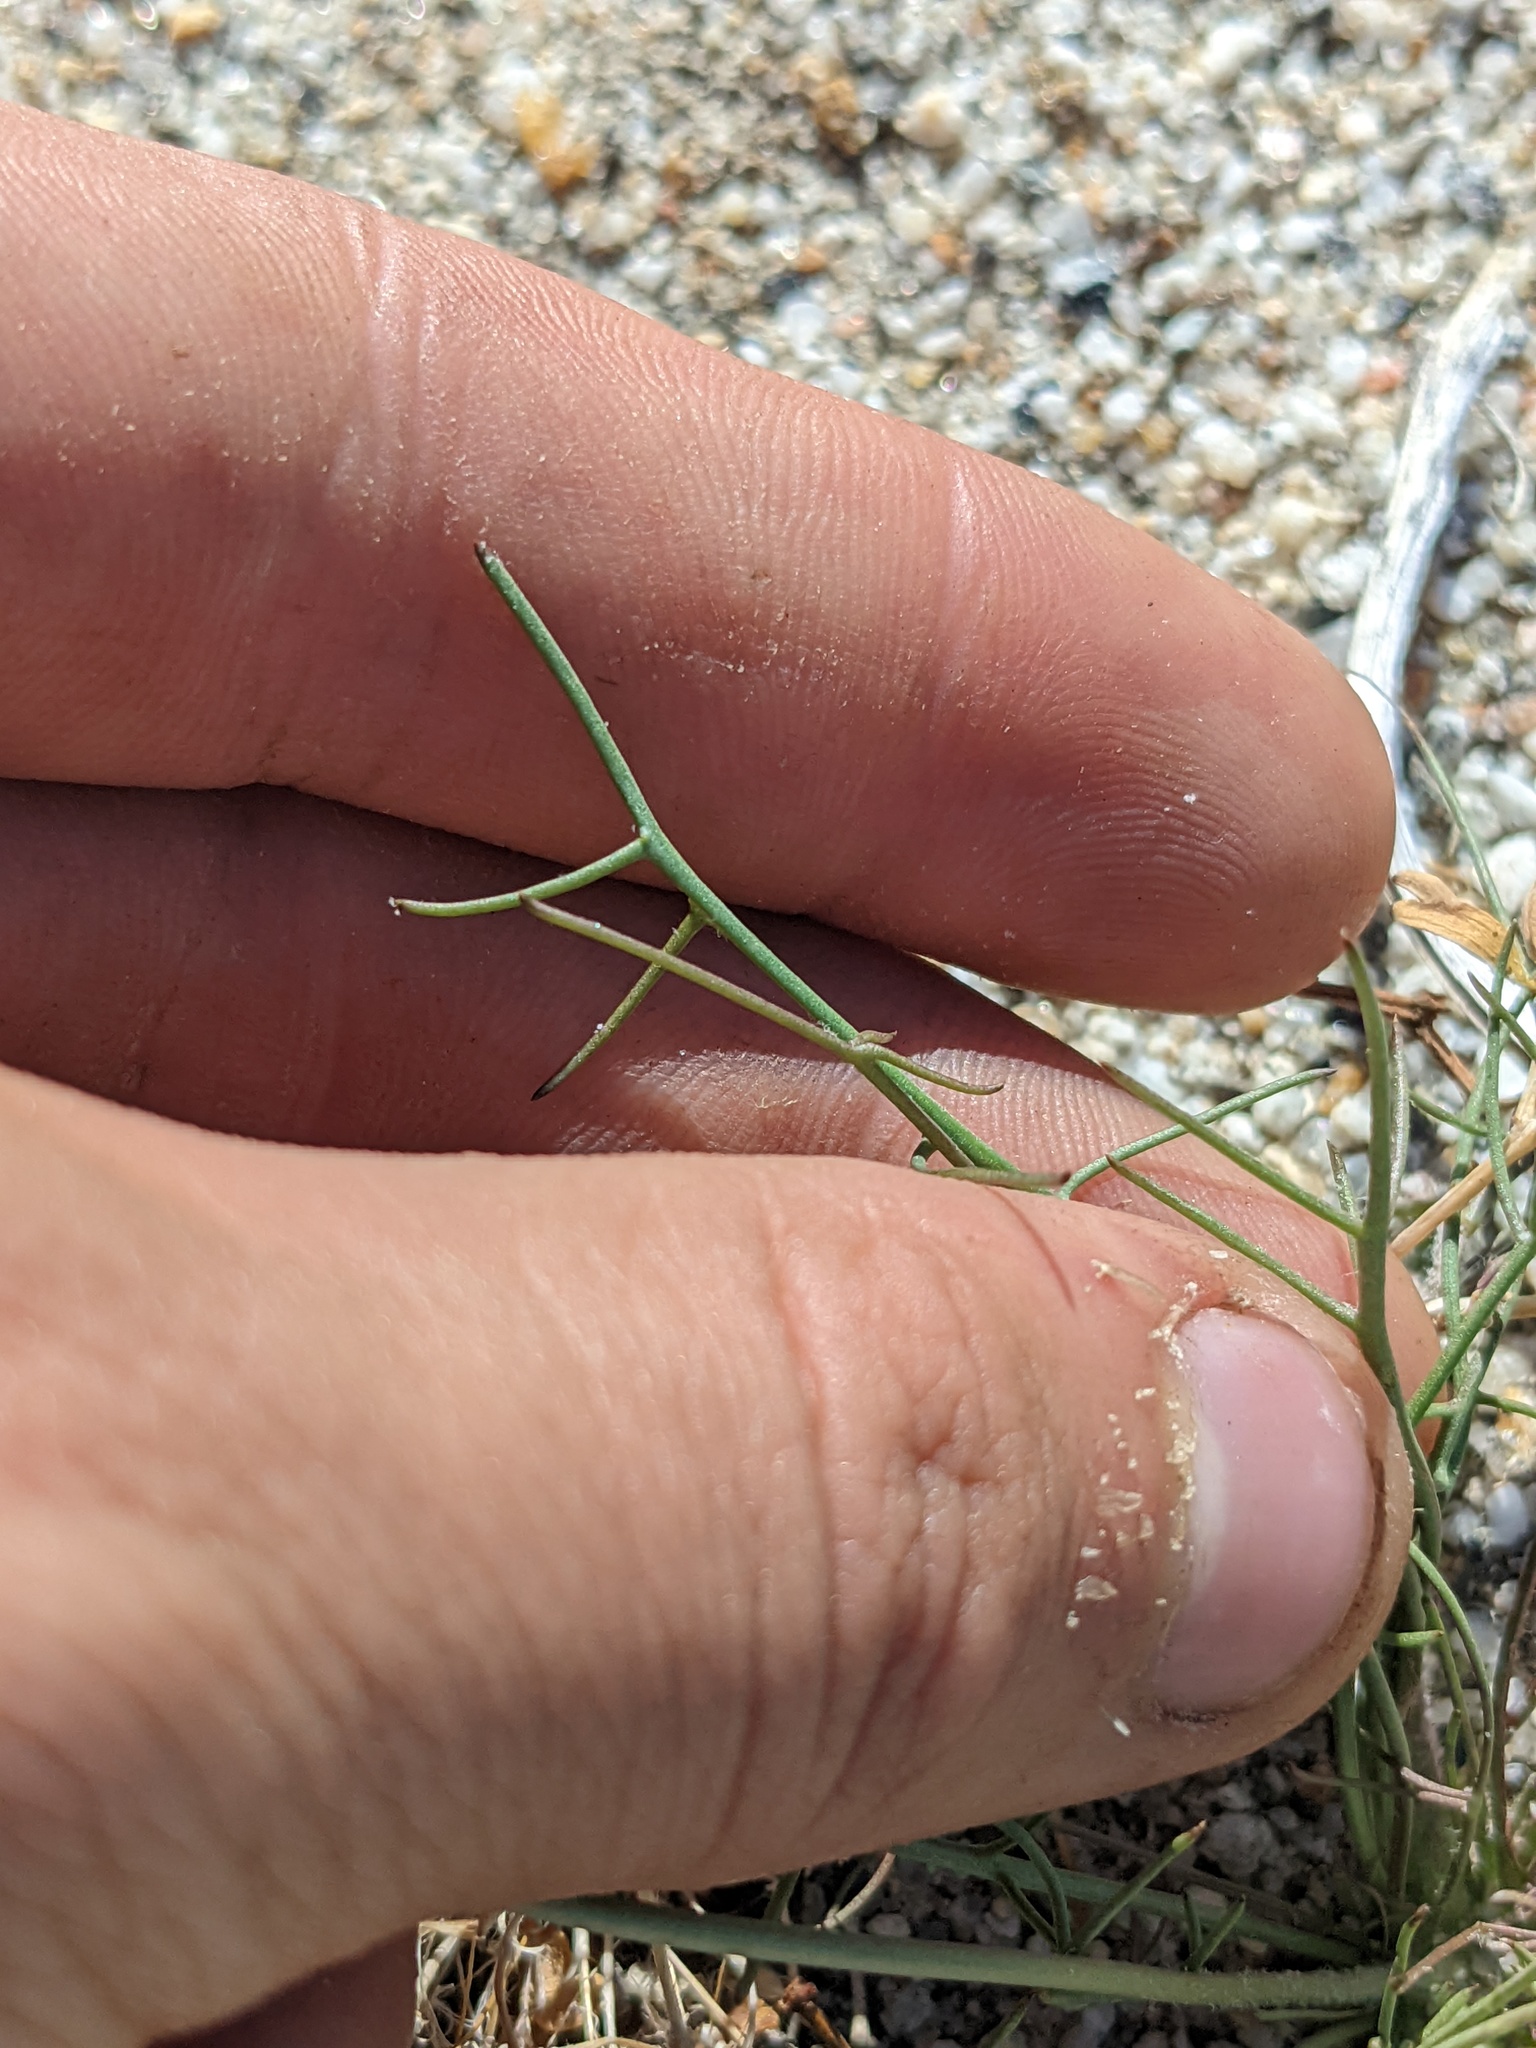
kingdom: Plantae
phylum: Tracheophyta
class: Magnoliopsida
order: Asterales
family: Asteraceae
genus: Malacothrix
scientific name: Malacothrix glabrata
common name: Smooth desert-dandelion
